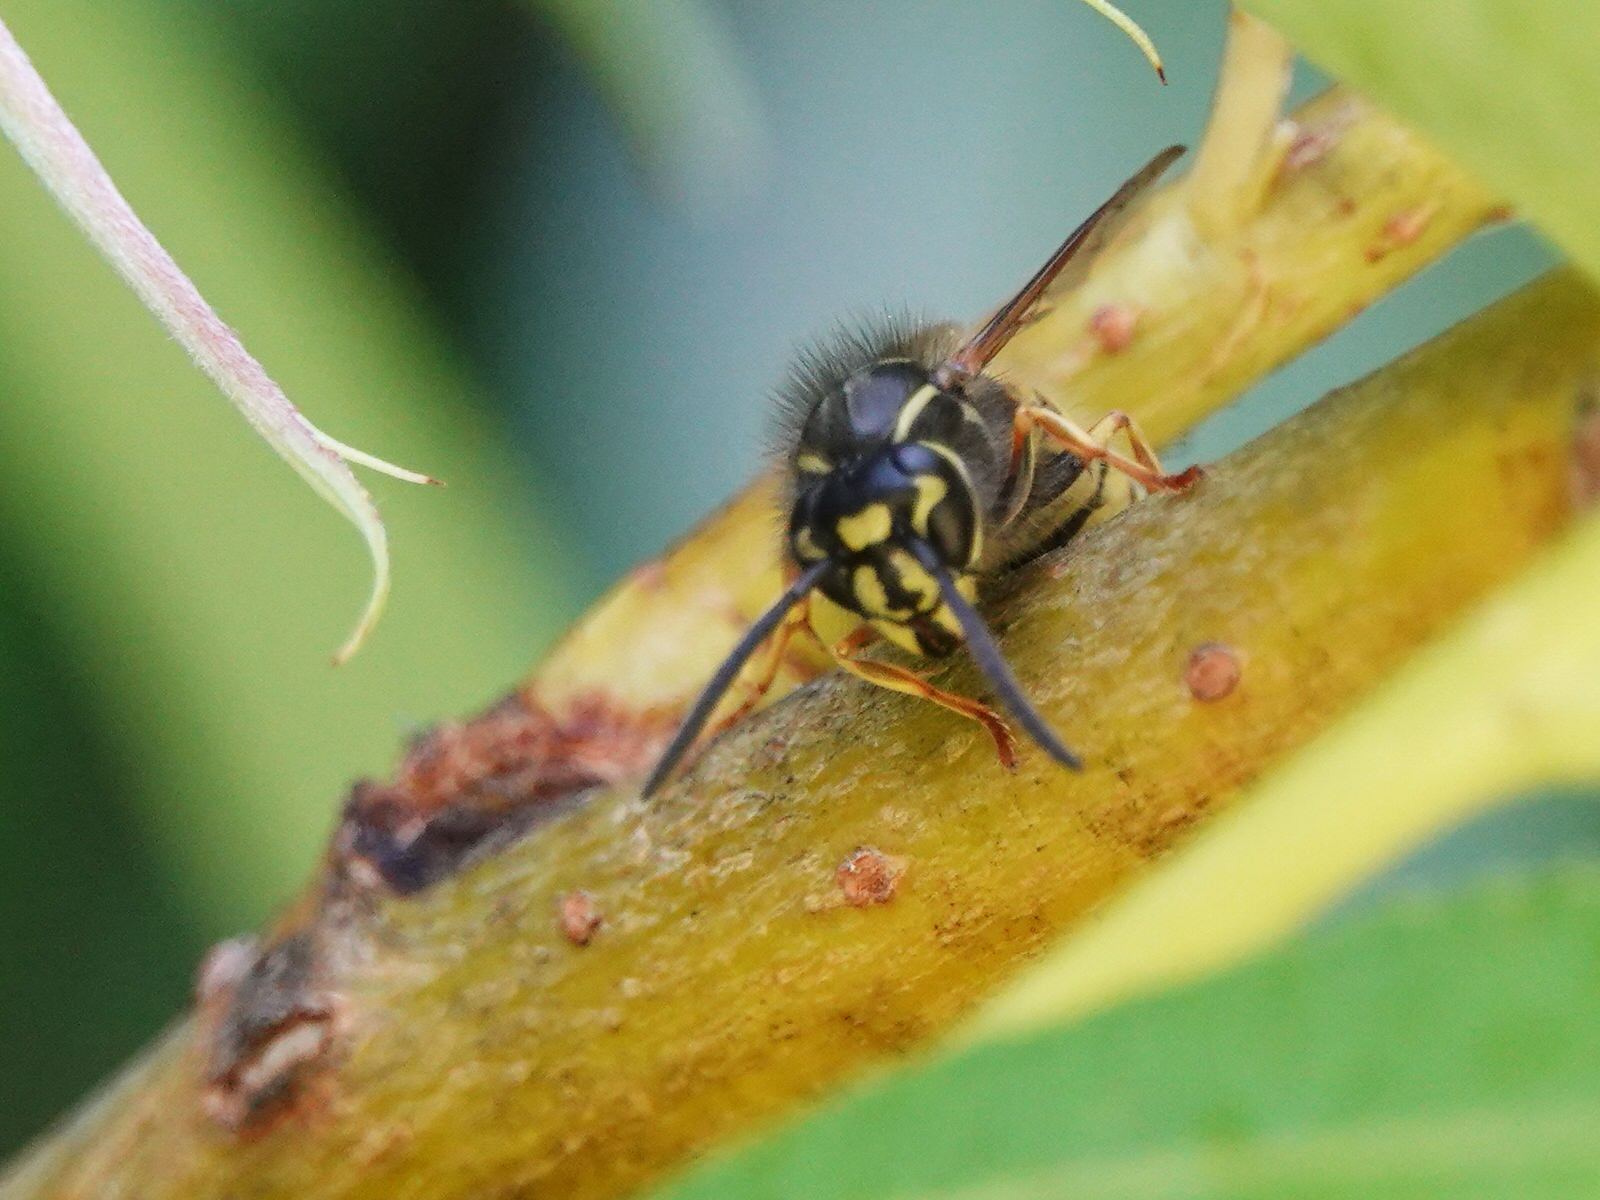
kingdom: Animalia
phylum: Arthropoda
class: Insecta
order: Hymenoptera
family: Vespidae
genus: Vespula
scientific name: Vespula vulgaris
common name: Common wasp
